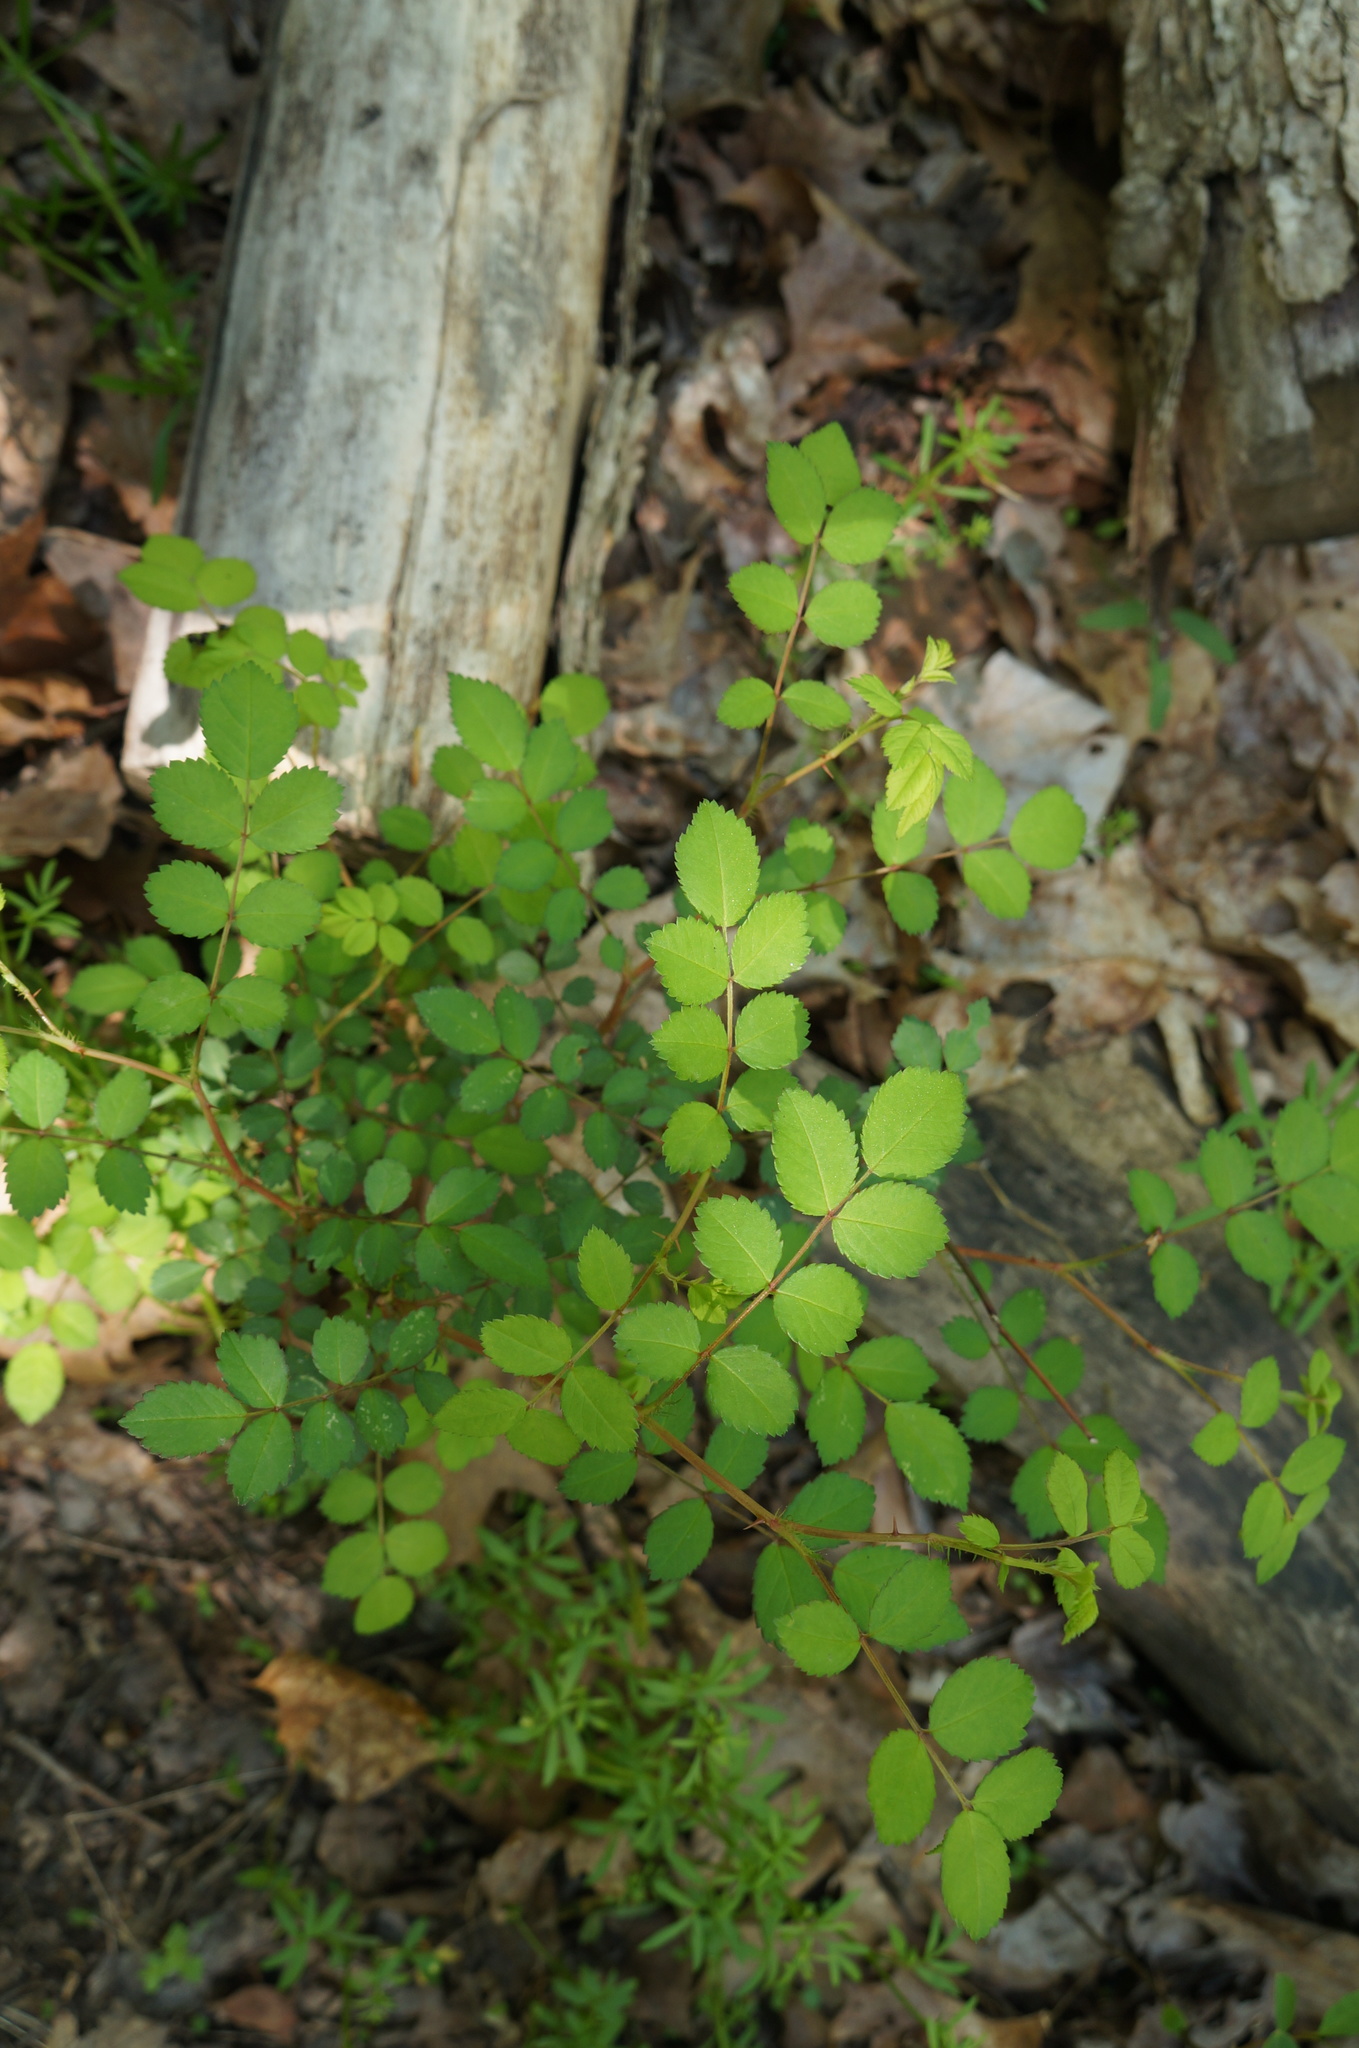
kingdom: Plantae
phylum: Tracheophyta
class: Magnoliopsida
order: Rosales
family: Rosaceae
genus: Rosa
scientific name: Rosa multiflora
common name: Multiflora rose
